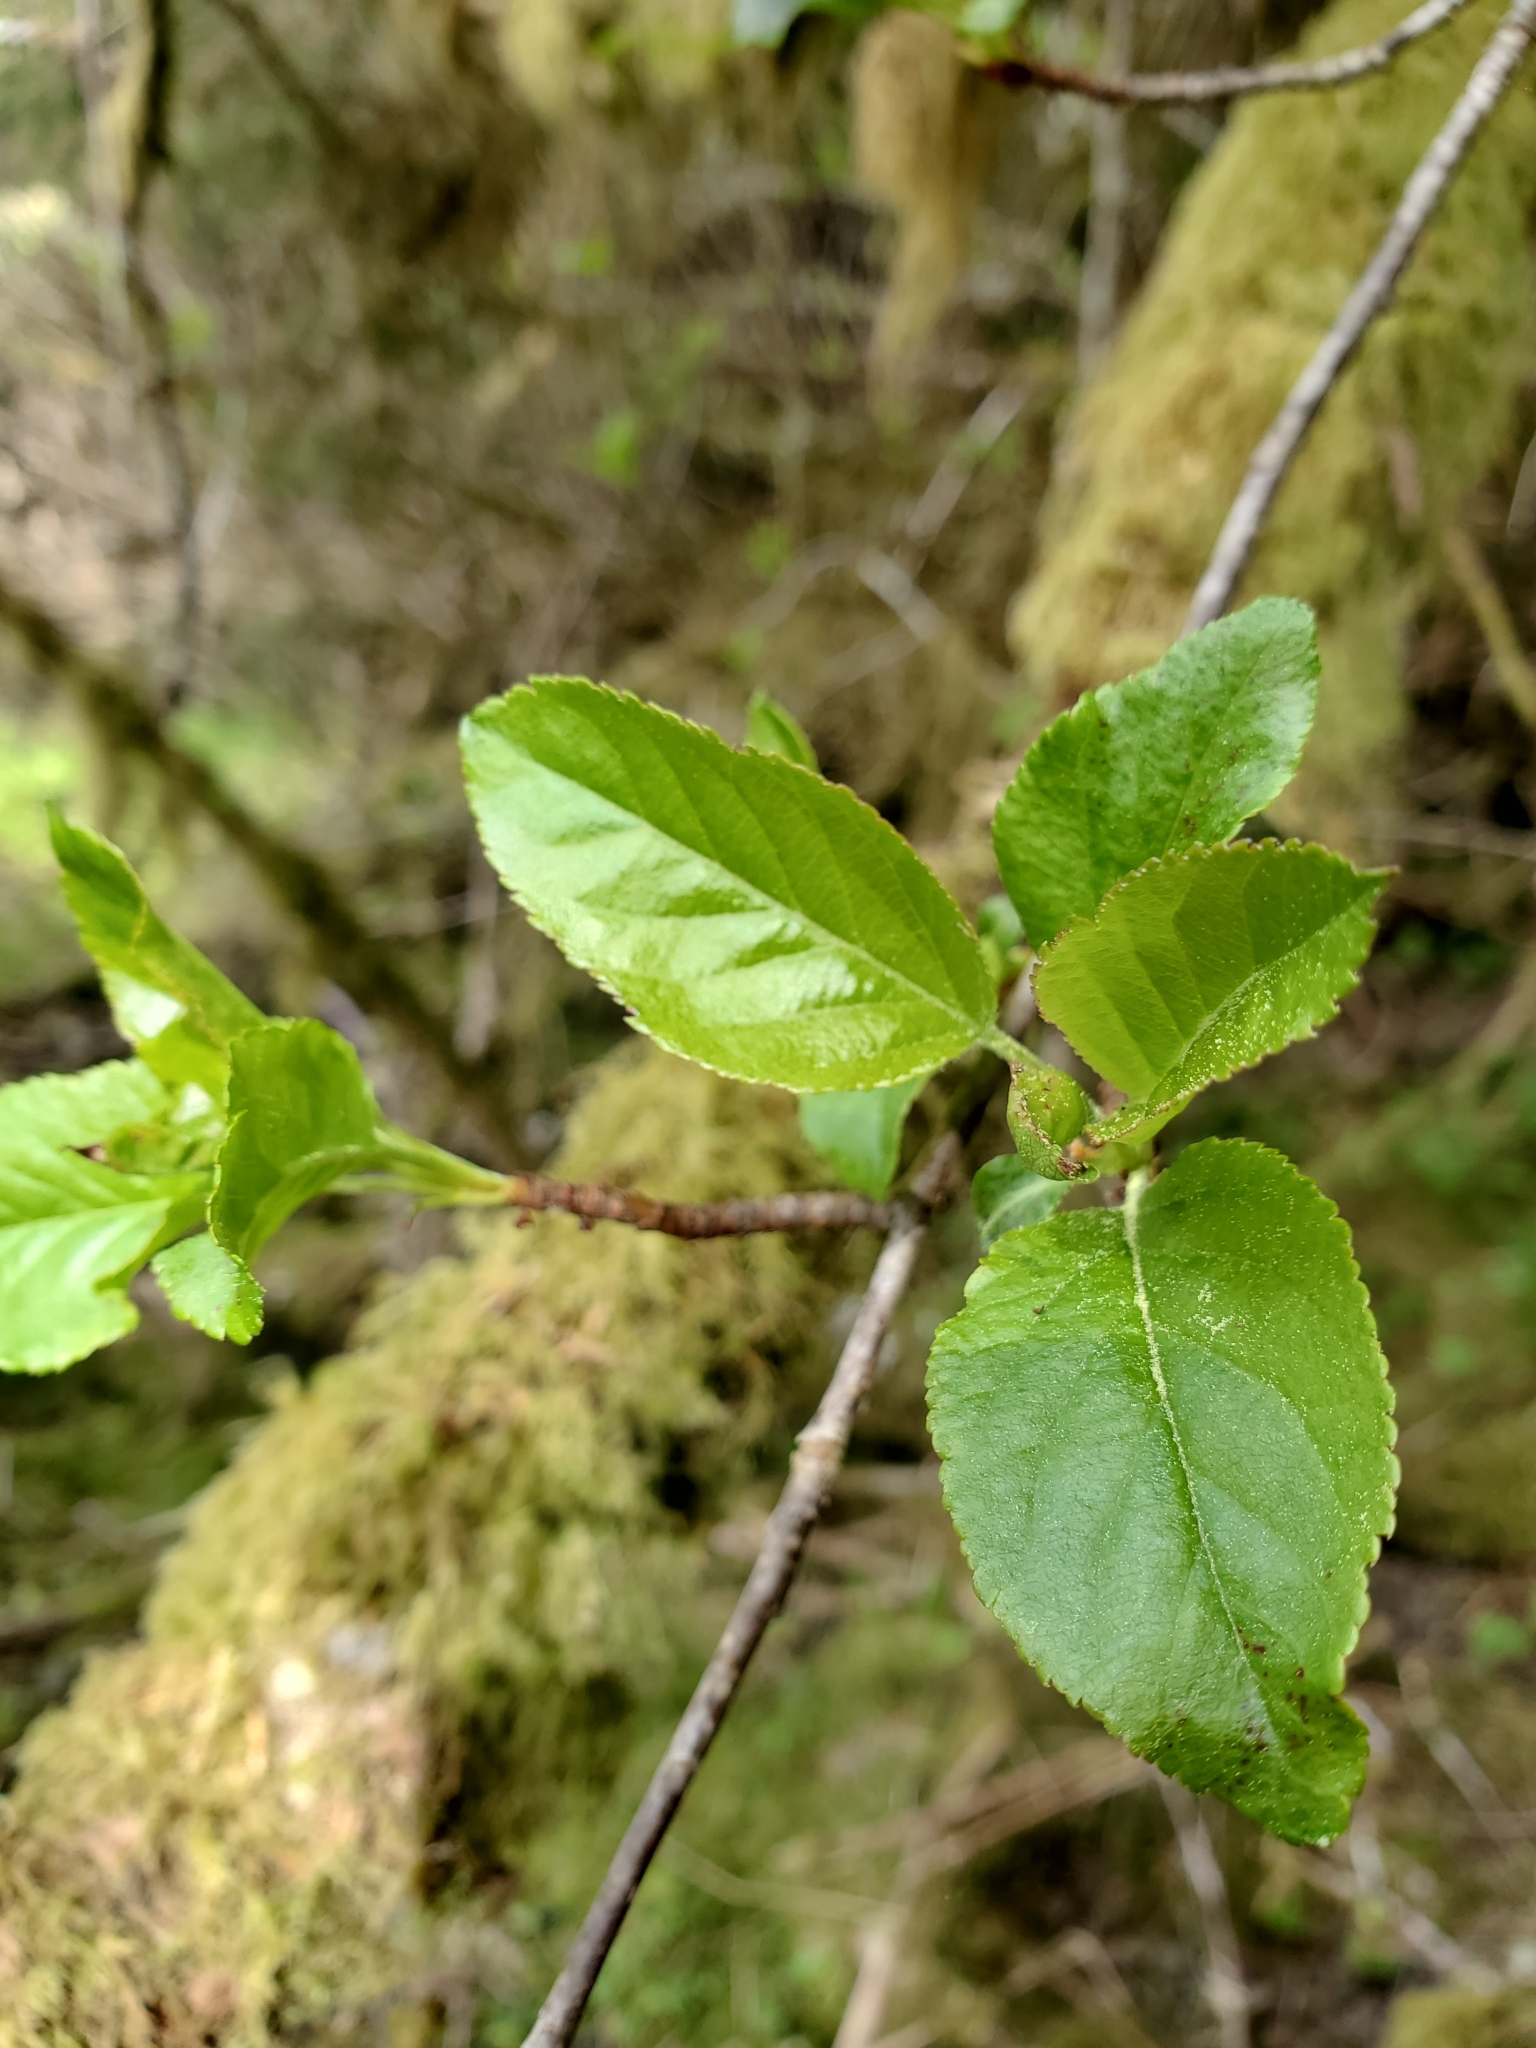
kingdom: Plantae
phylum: Tracheophyta
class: Magnoliopsida
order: Rosales
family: Rosaceae
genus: Malus
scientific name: Malus fusca
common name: Oregon crab apple
